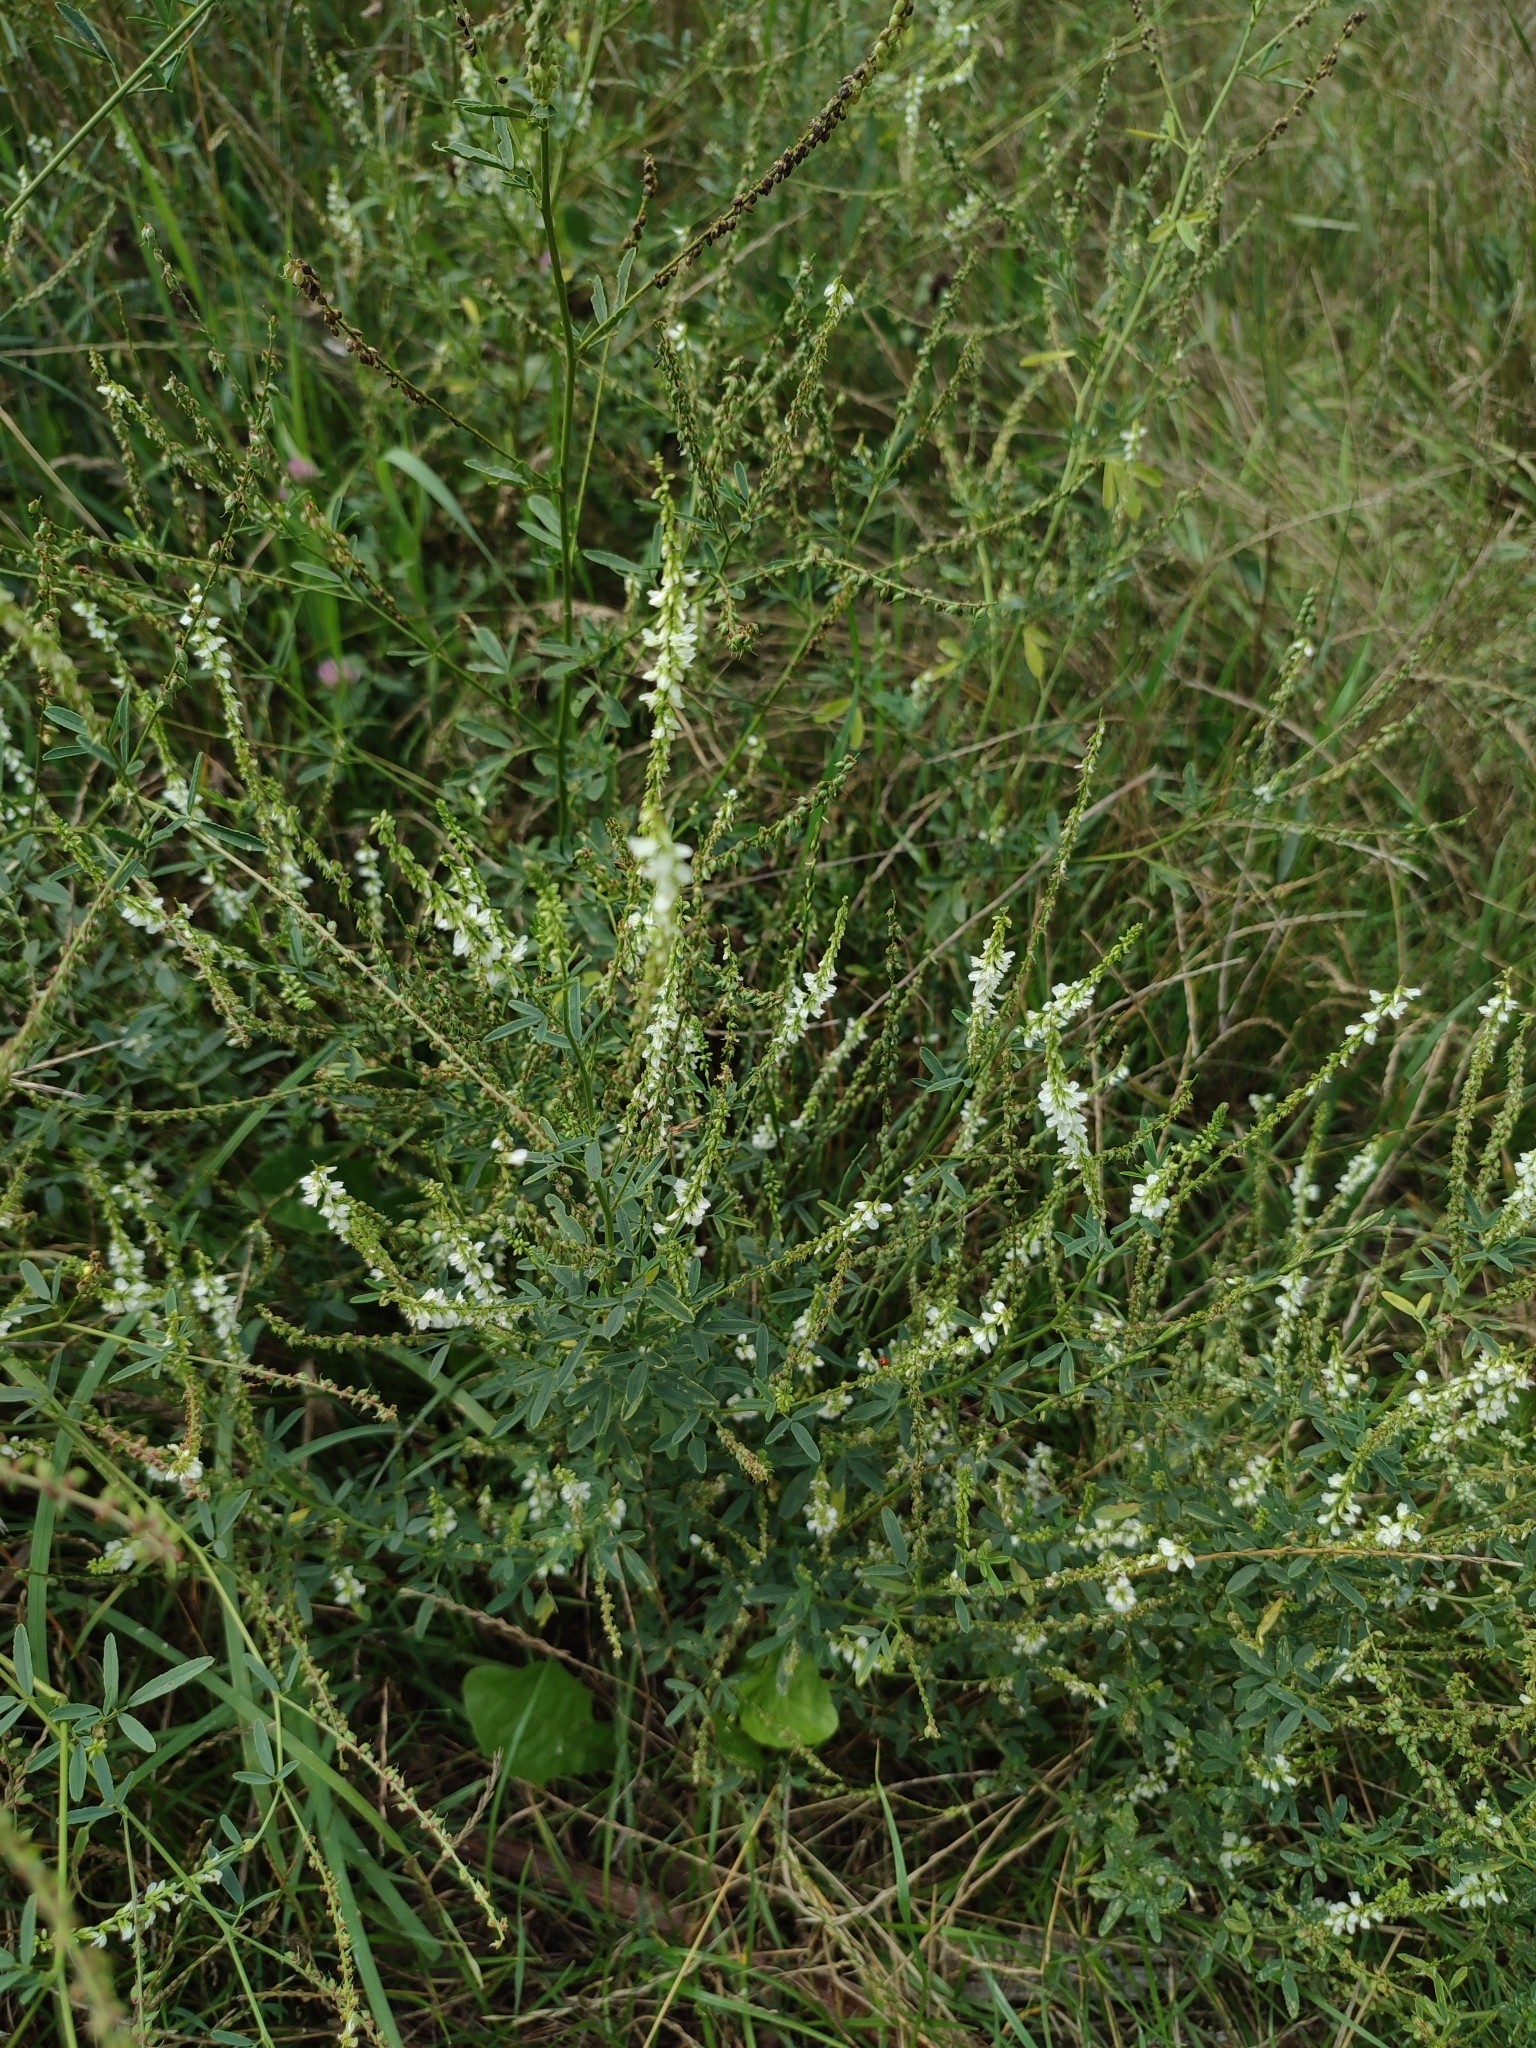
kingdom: Plantae
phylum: Tracheophyta
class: Magnoliopsida
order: Fabales
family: Fabaceae
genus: Melilotus
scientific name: Melilotus albus
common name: White melilot
